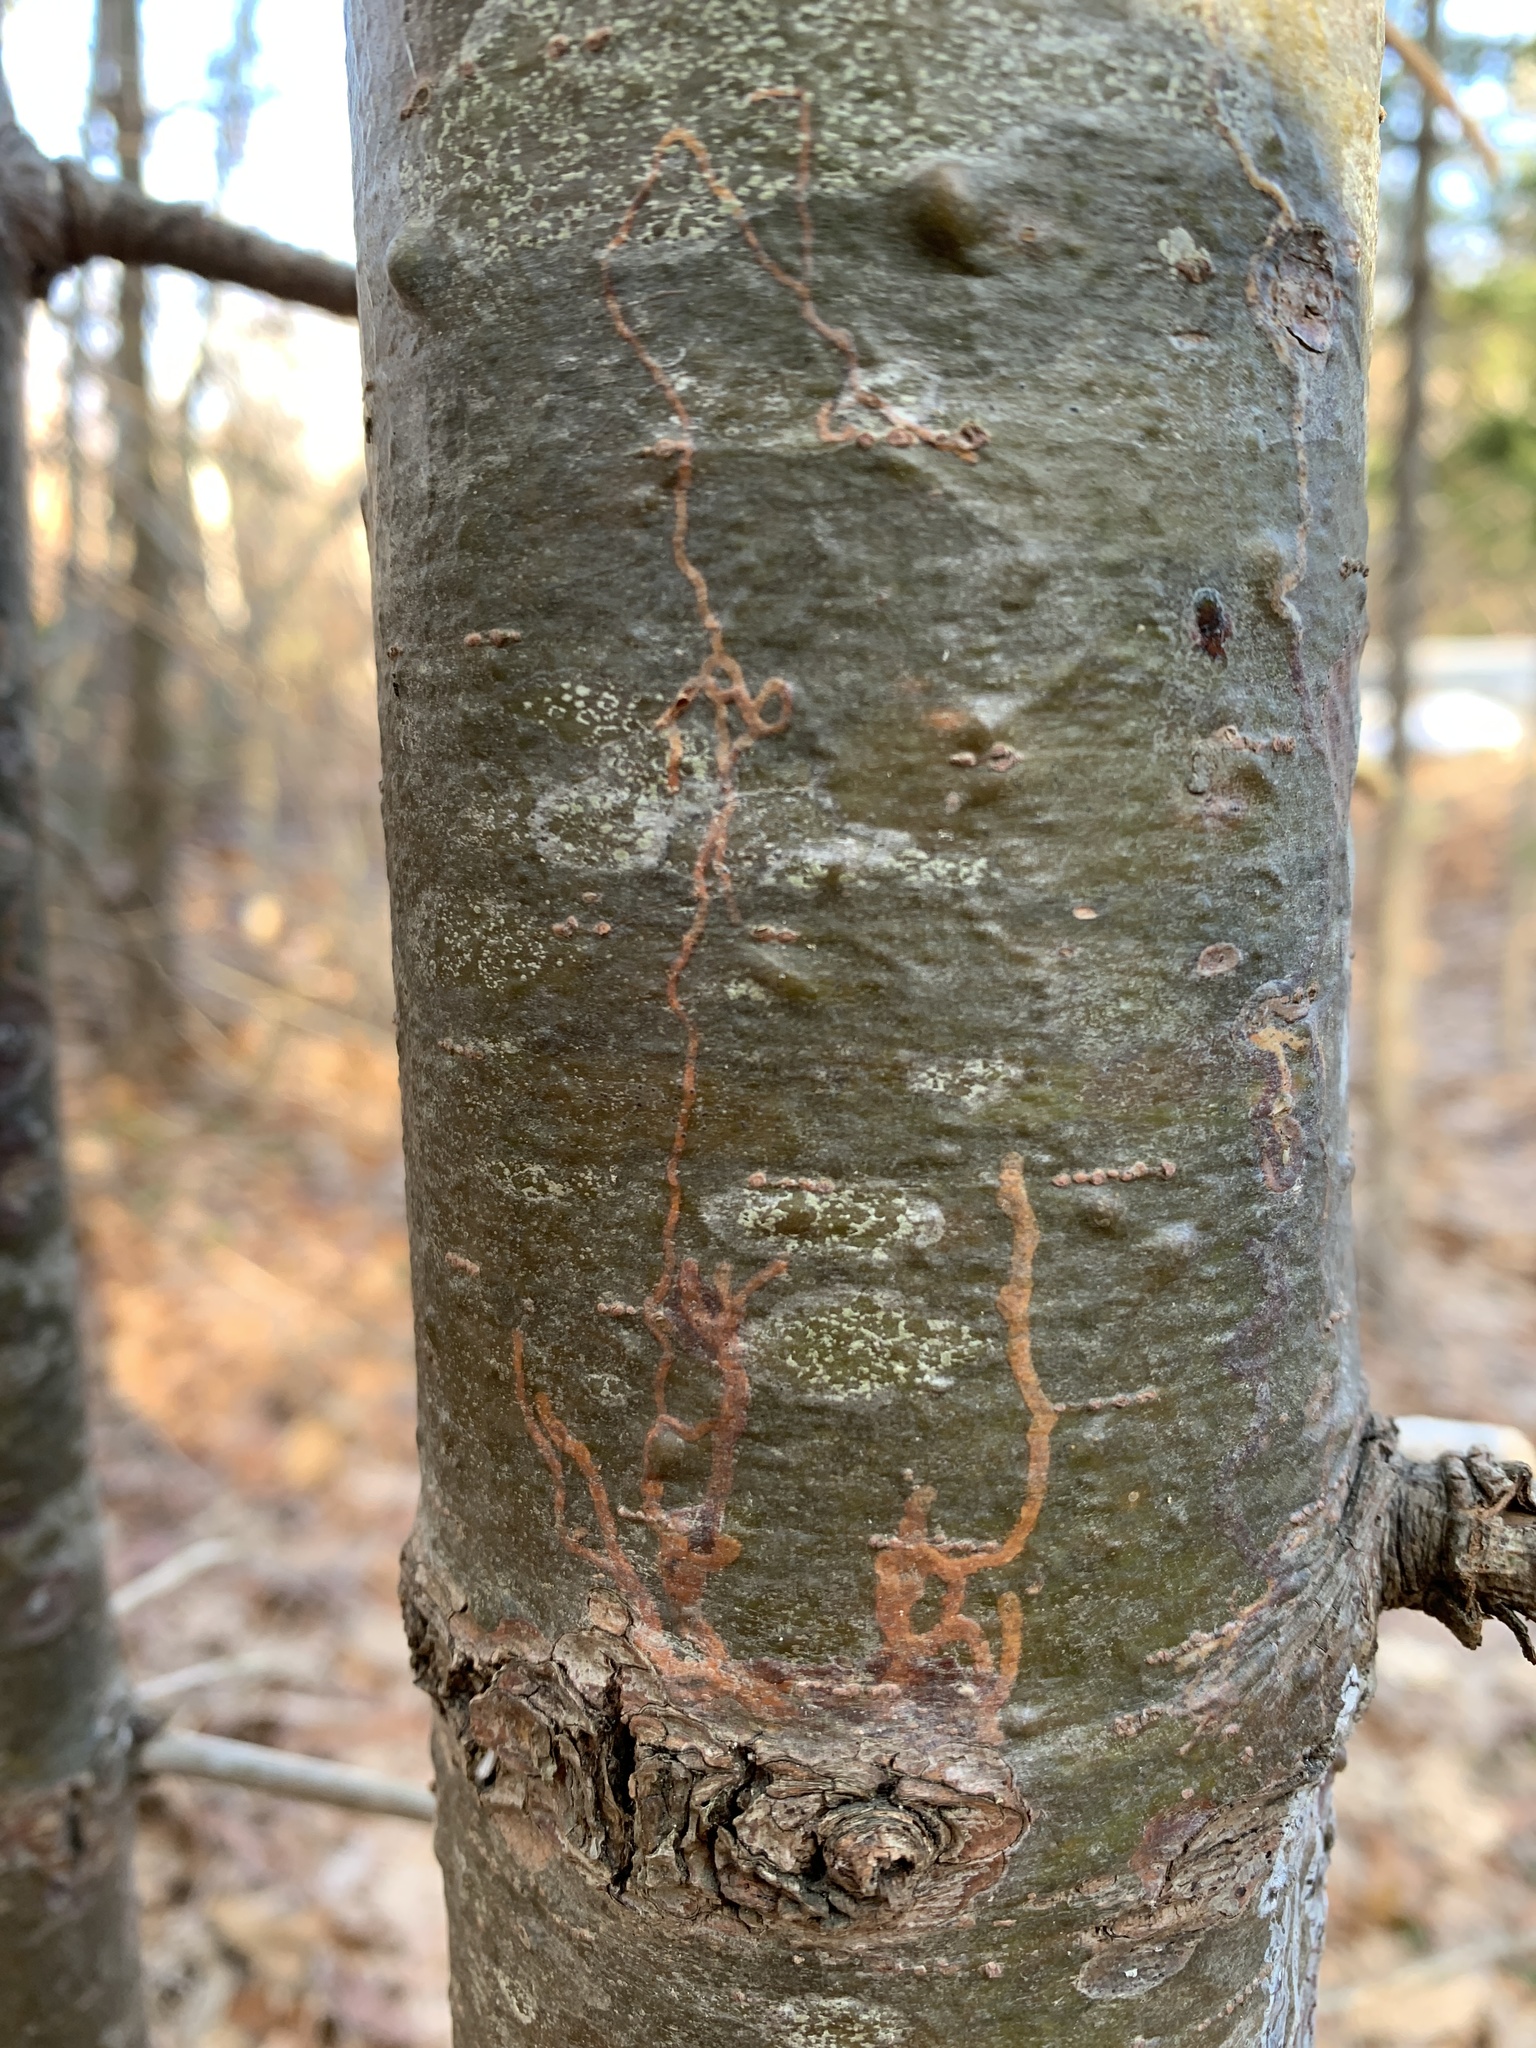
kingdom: Animalia
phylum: Arthropoda
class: Insecta
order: Lepidoptera
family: Gracillariidae
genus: Marmara
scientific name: Marmara fasciella
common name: White pine barkminer moth
